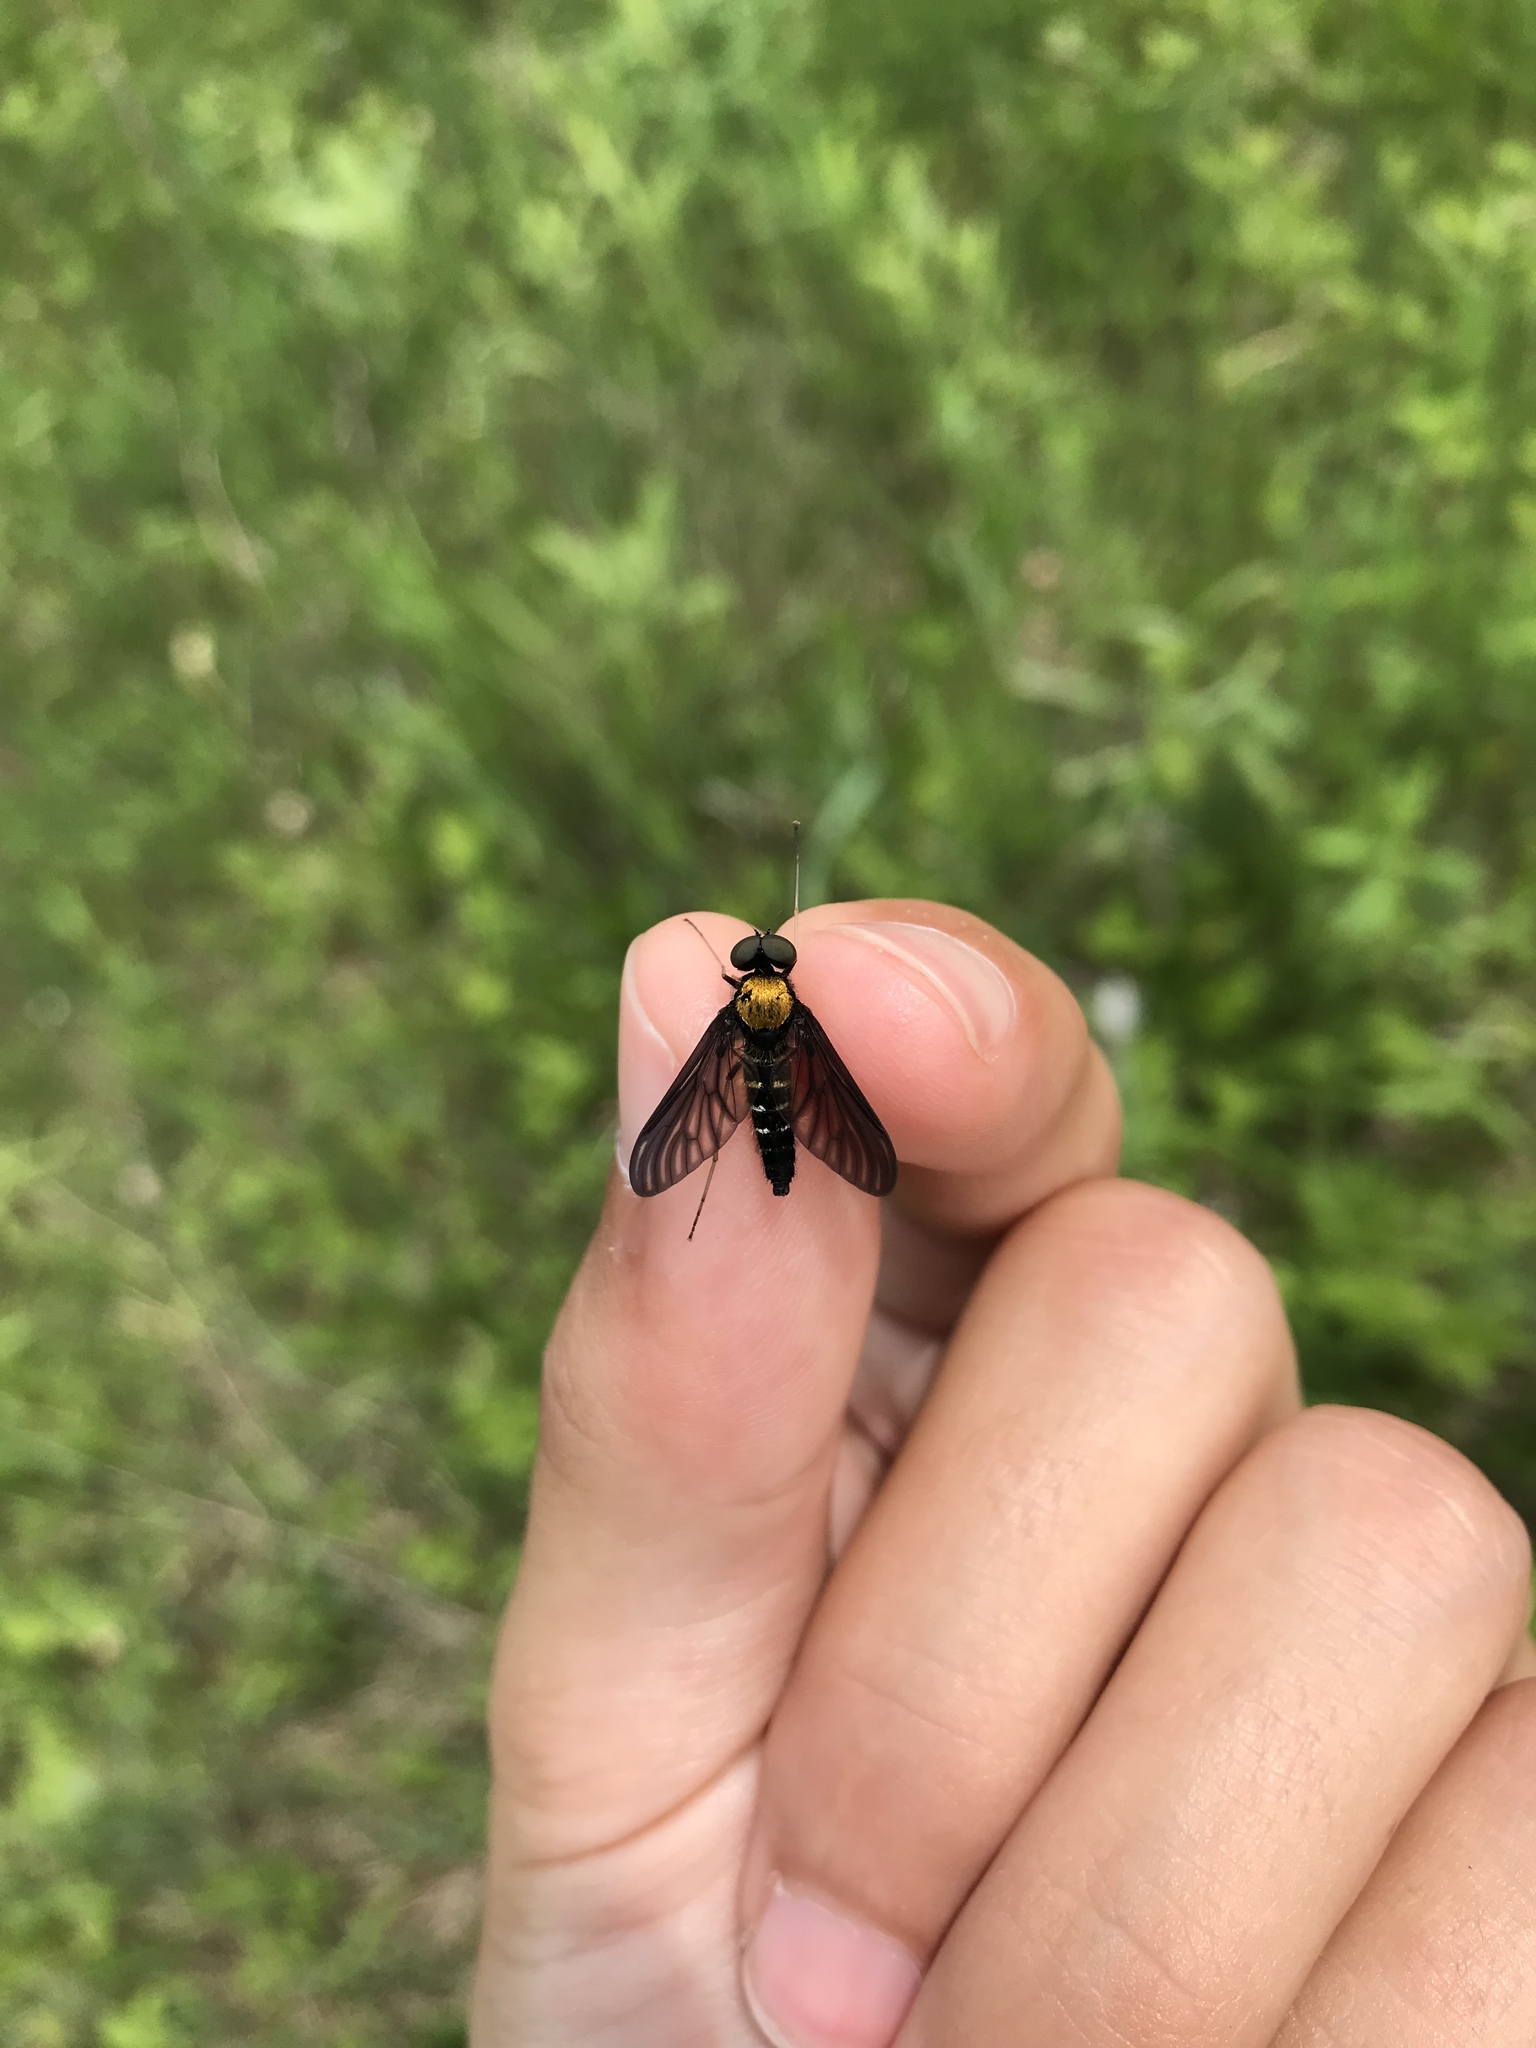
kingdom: Animalia
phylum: Arthropoda
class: Insecta
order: Diptera
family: Rhagionidae
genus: Chrysopilus
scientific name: Chrysopilus thoracicus
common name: Golden-backed snipe fly
